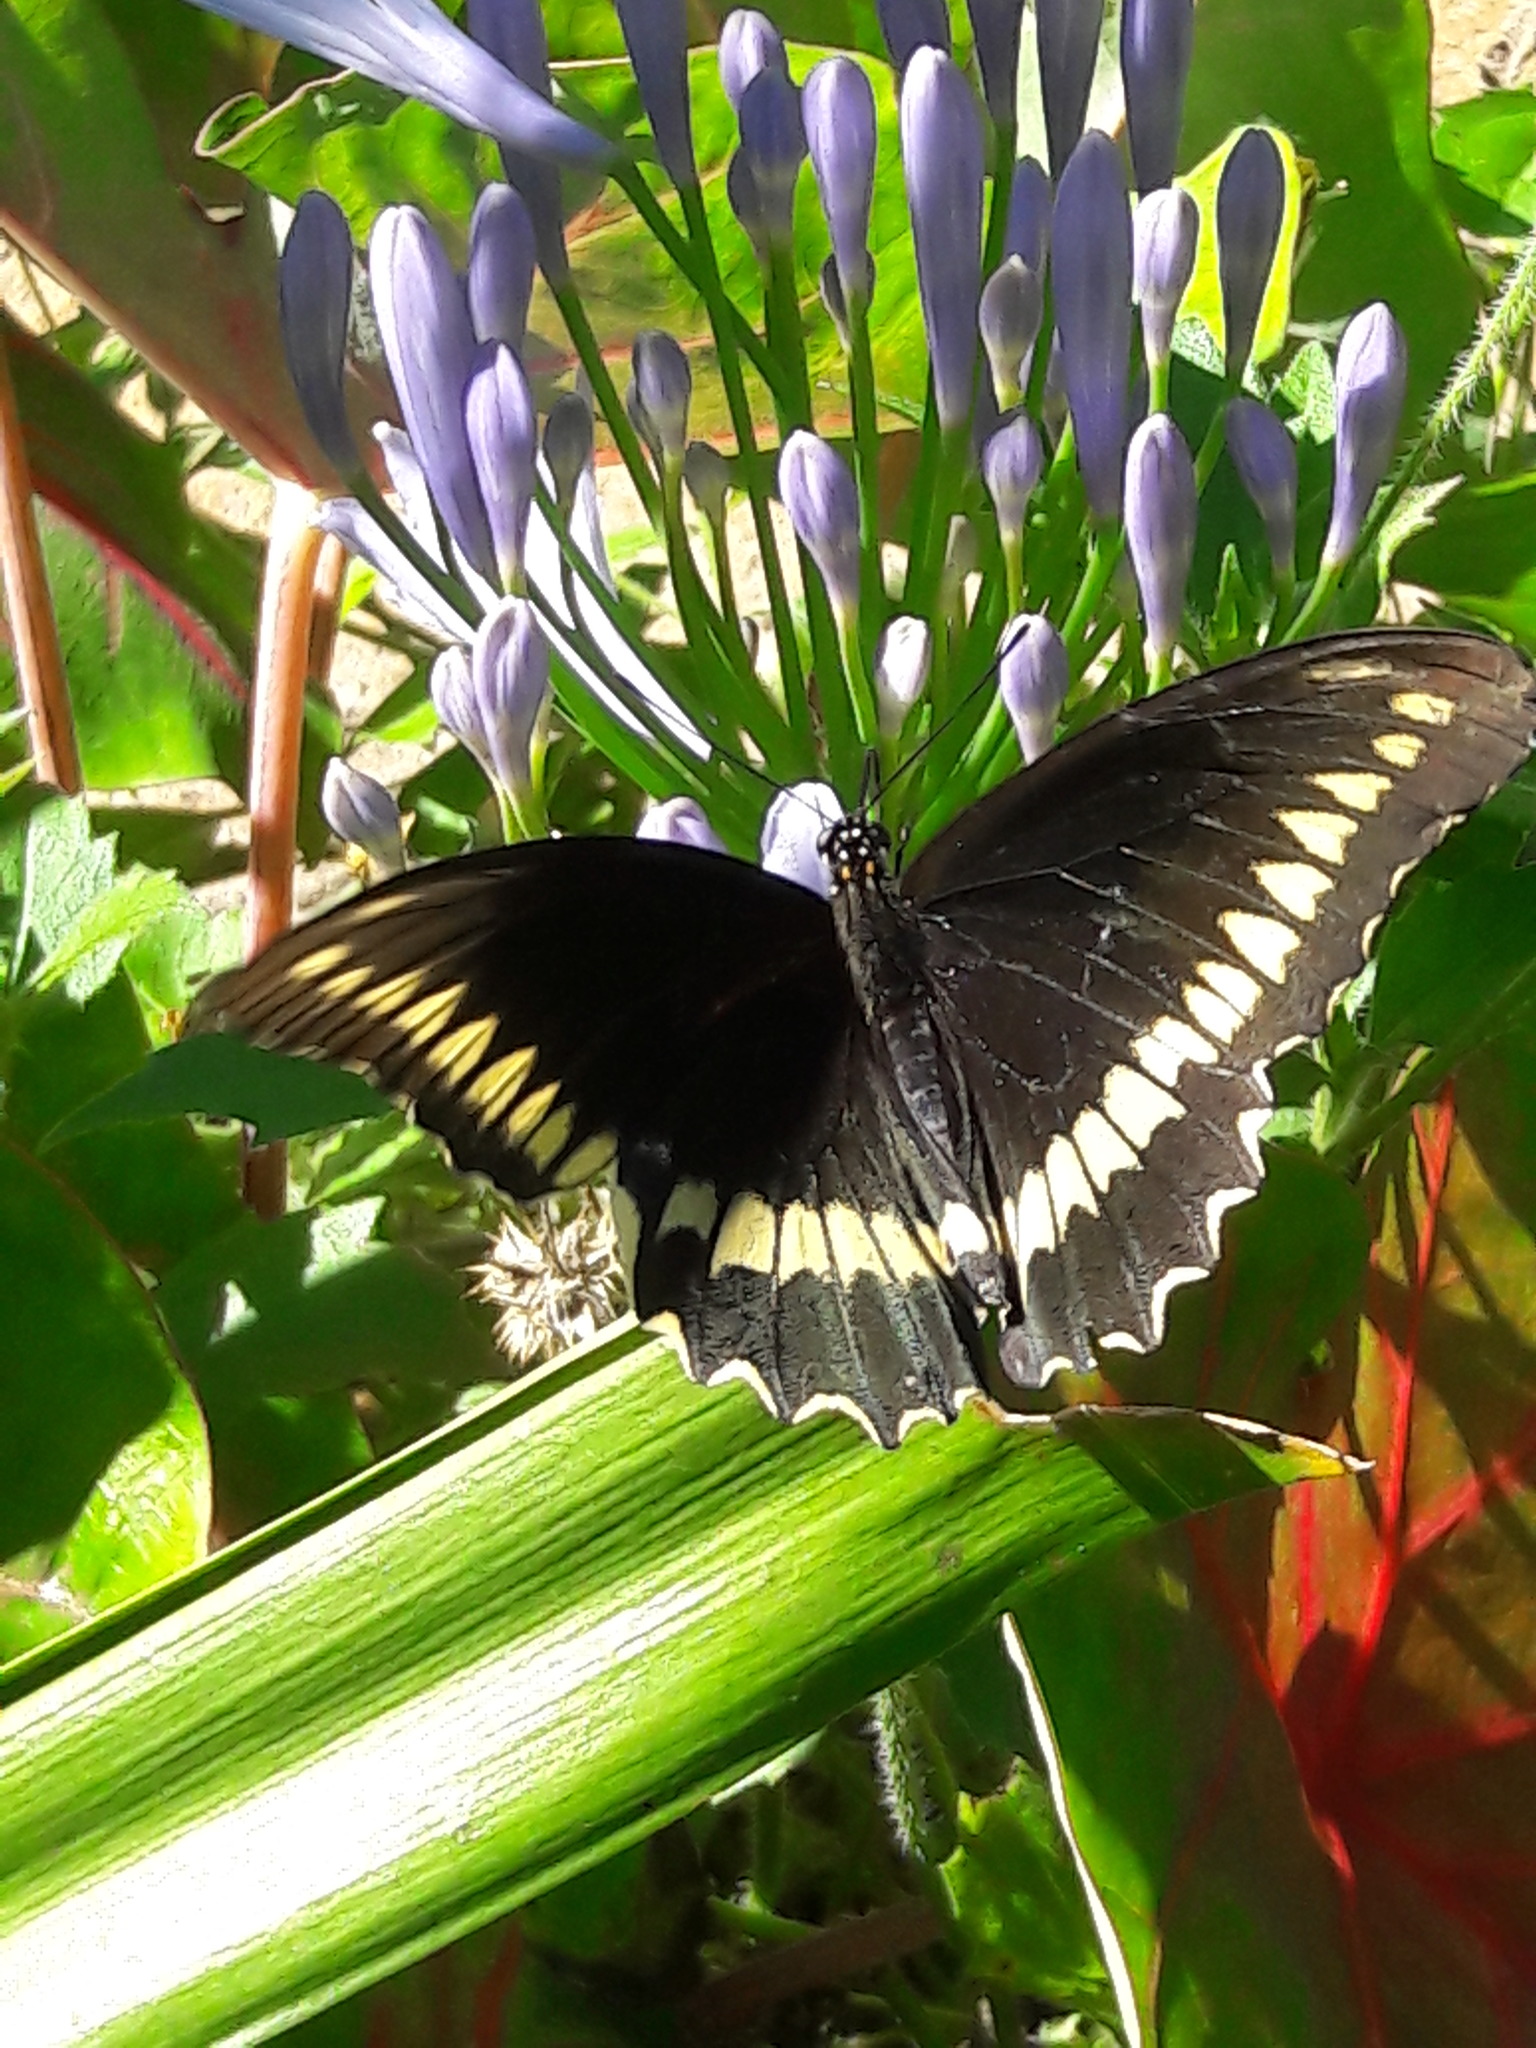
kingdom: Animalia
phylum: Arthropoda
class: Insecta
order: Lepidoptera
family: Papilionidae
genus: Battus
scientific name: Battus polydamas
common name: Polydamas swallowtail
